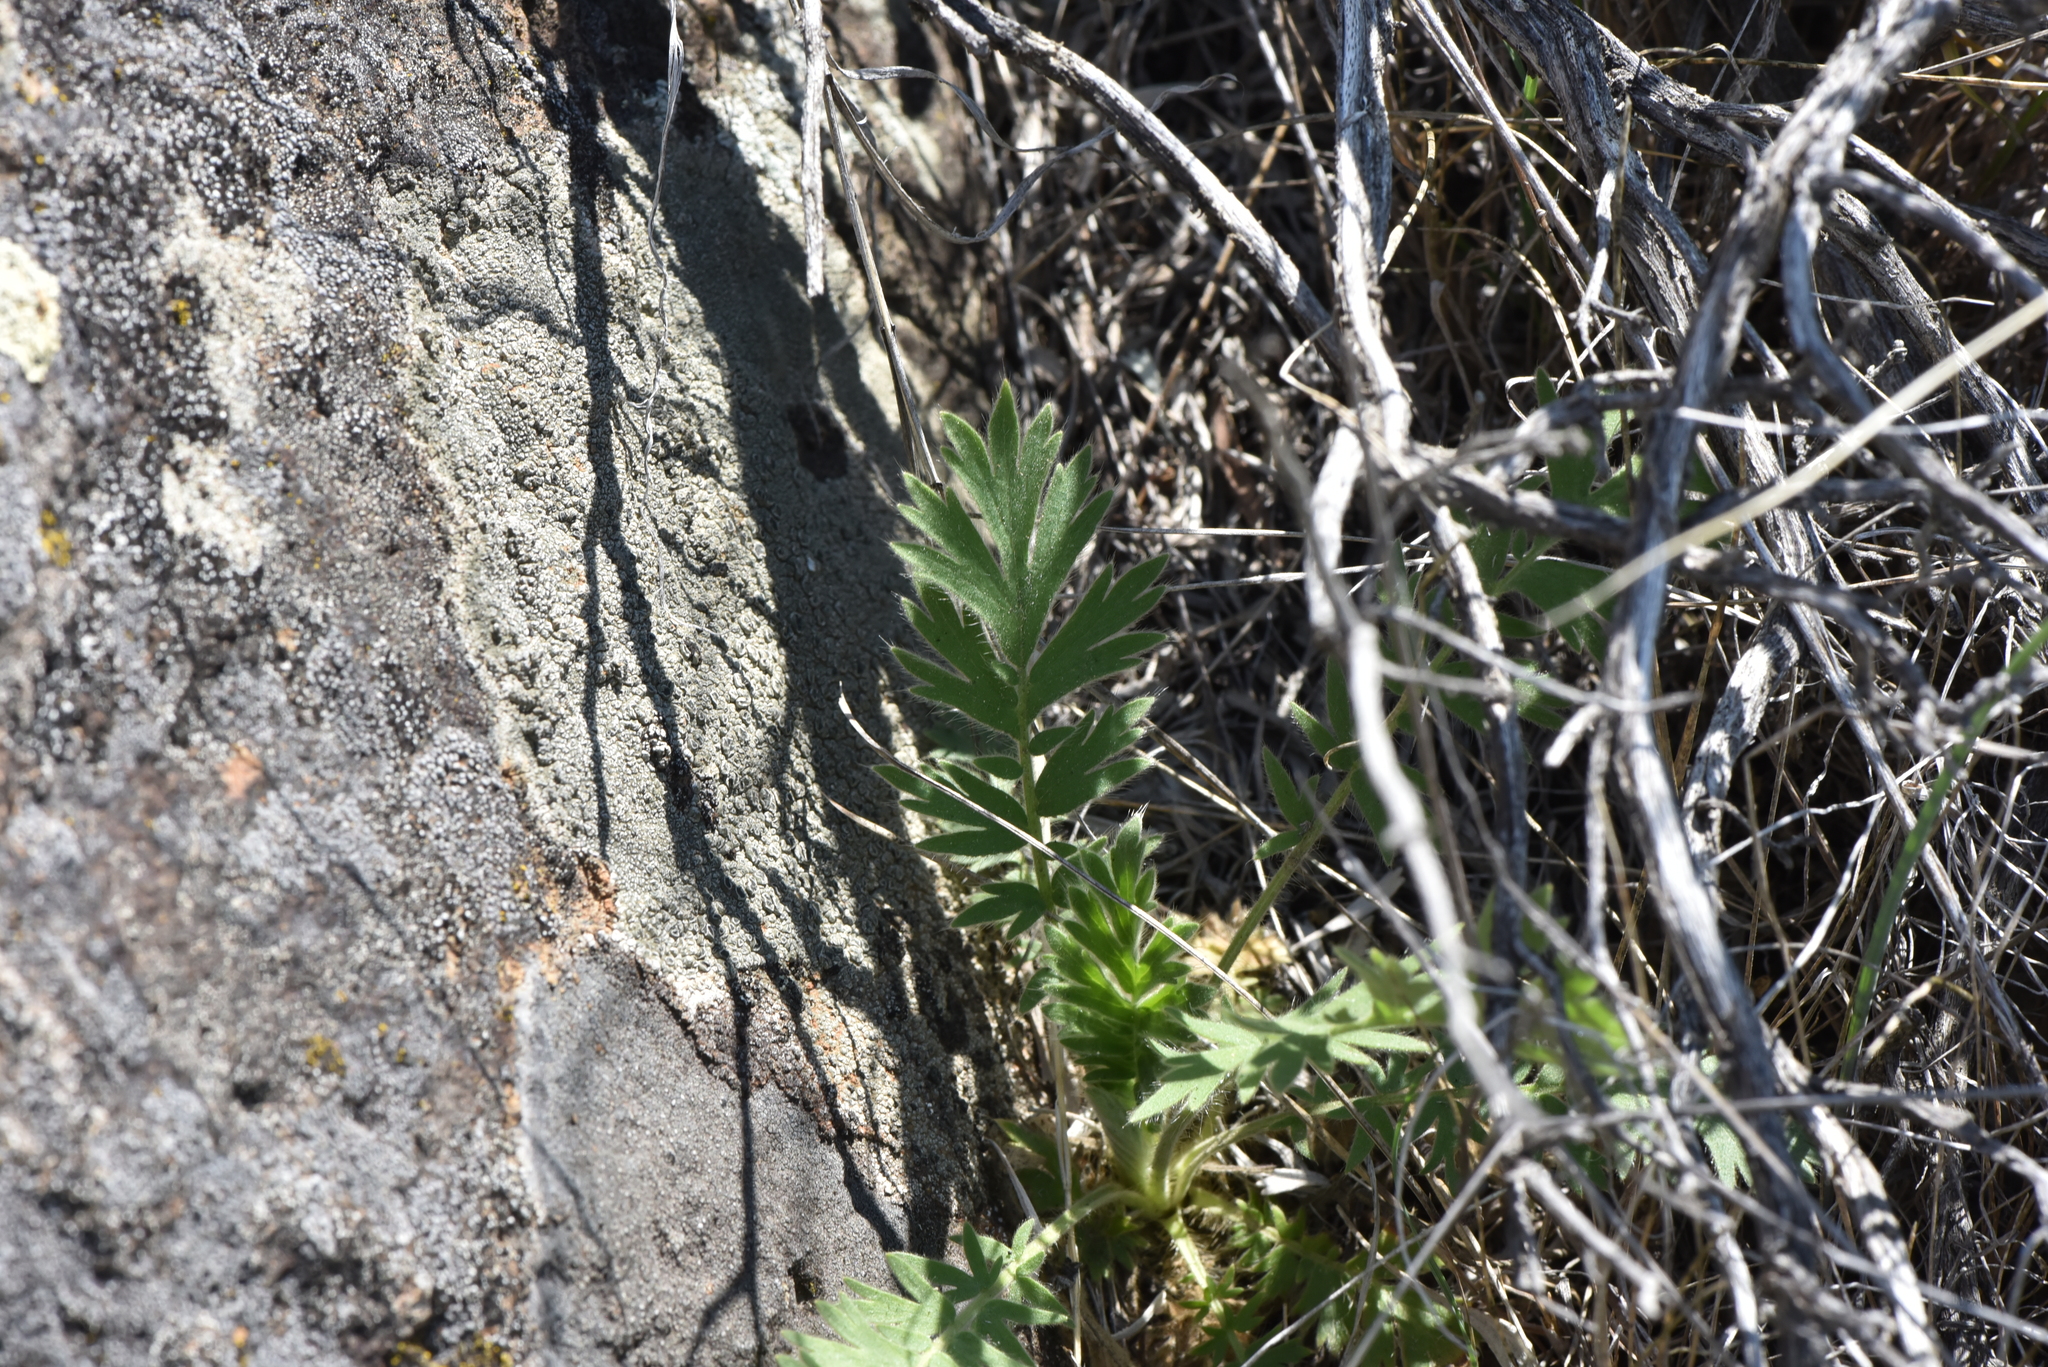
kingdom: Plantae
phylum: Tracheophyta
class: Magnoliopsida
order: Rosales
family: Rosaceae
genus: Geum
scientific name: Geum triflorum
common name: Old man's whiskers
